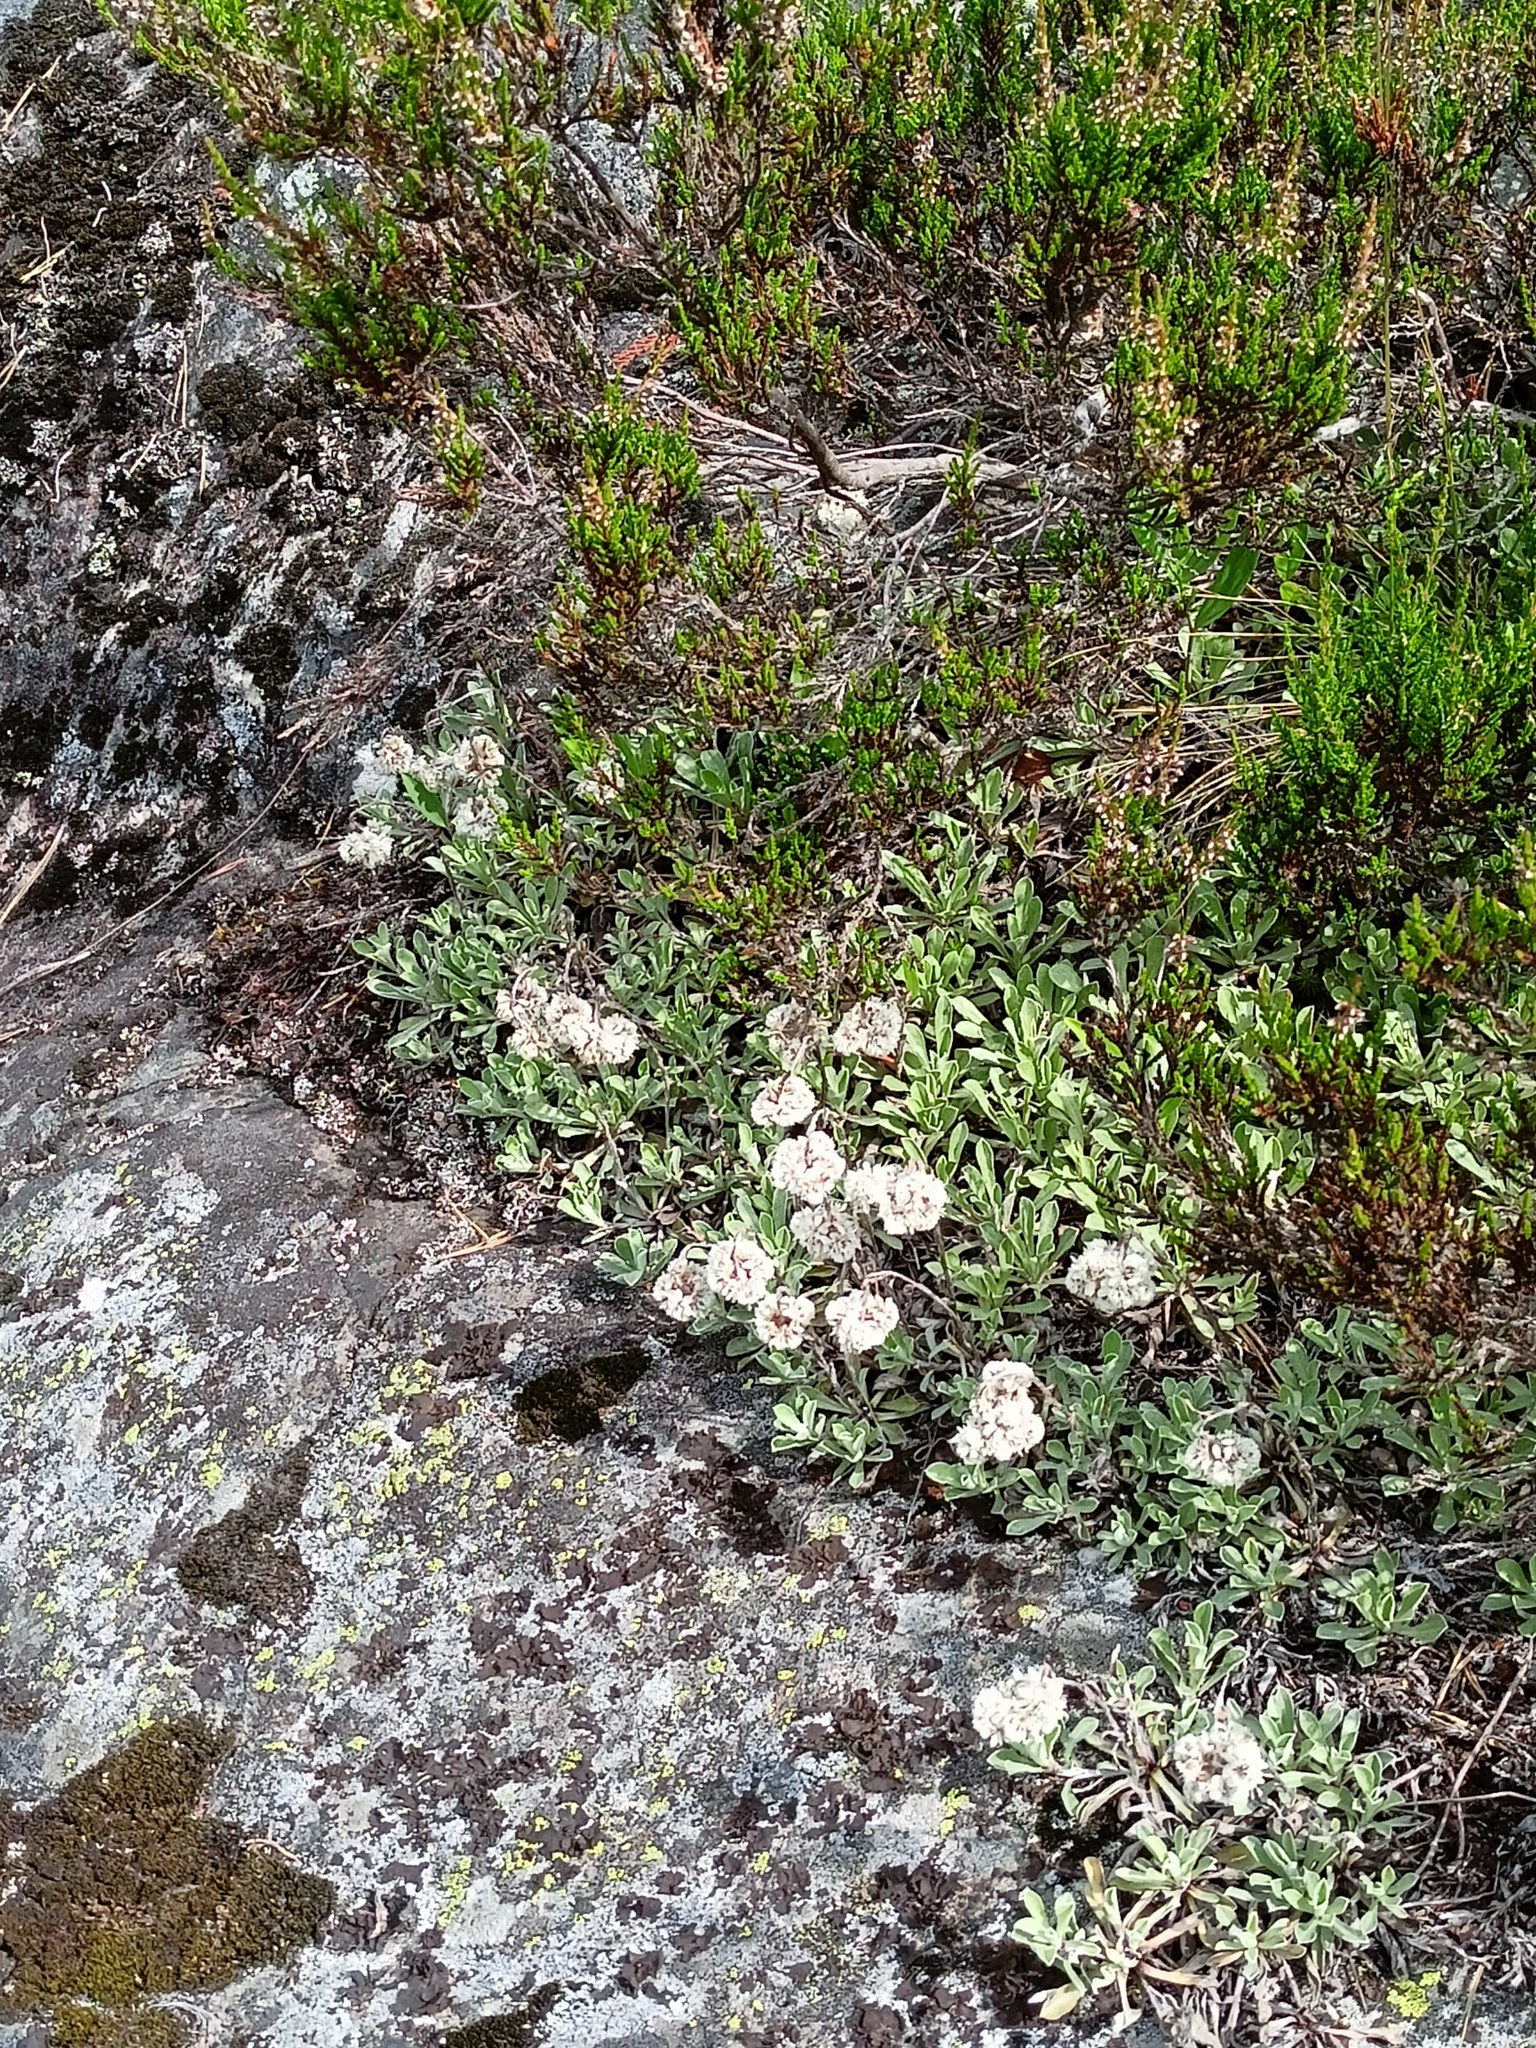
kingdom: Plantae
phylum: Tracheophyta
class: Magnoliopsida
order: Asterales
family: Asteraceae
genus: Antennaria
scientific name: Antennaria dioica
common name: Mountain everlasting
